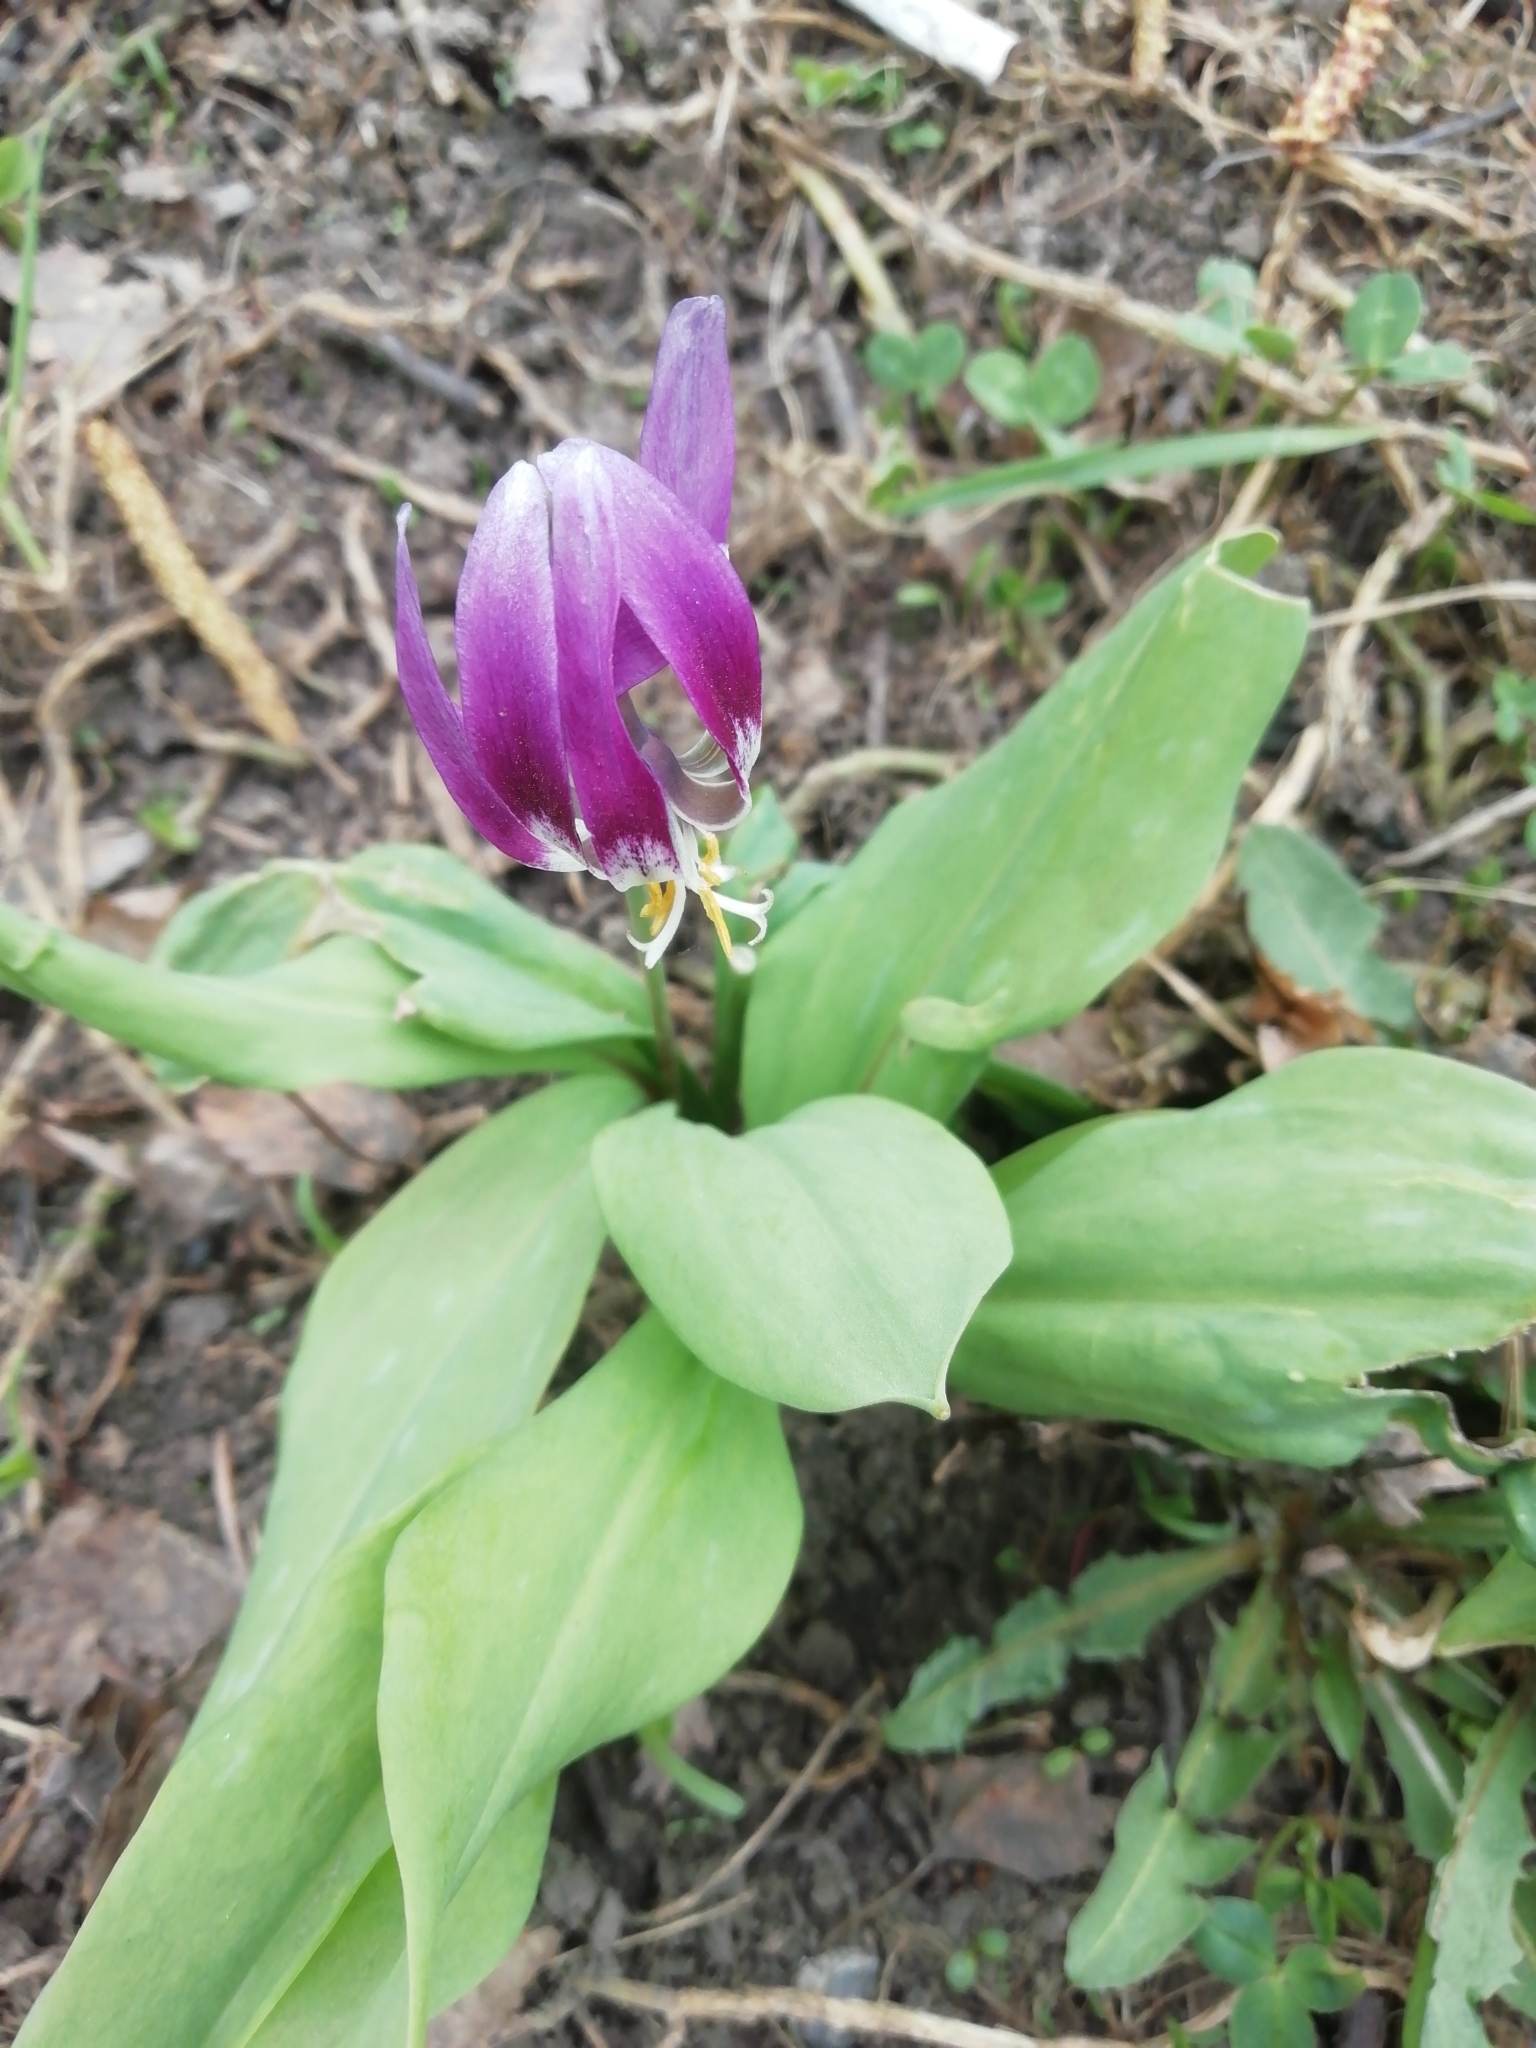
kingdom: Plantae
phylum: Tracheophyta
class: Liliopsida
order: Liliales
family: Liliaceae
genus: Erythronium
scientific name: Erythronium sibiricum
